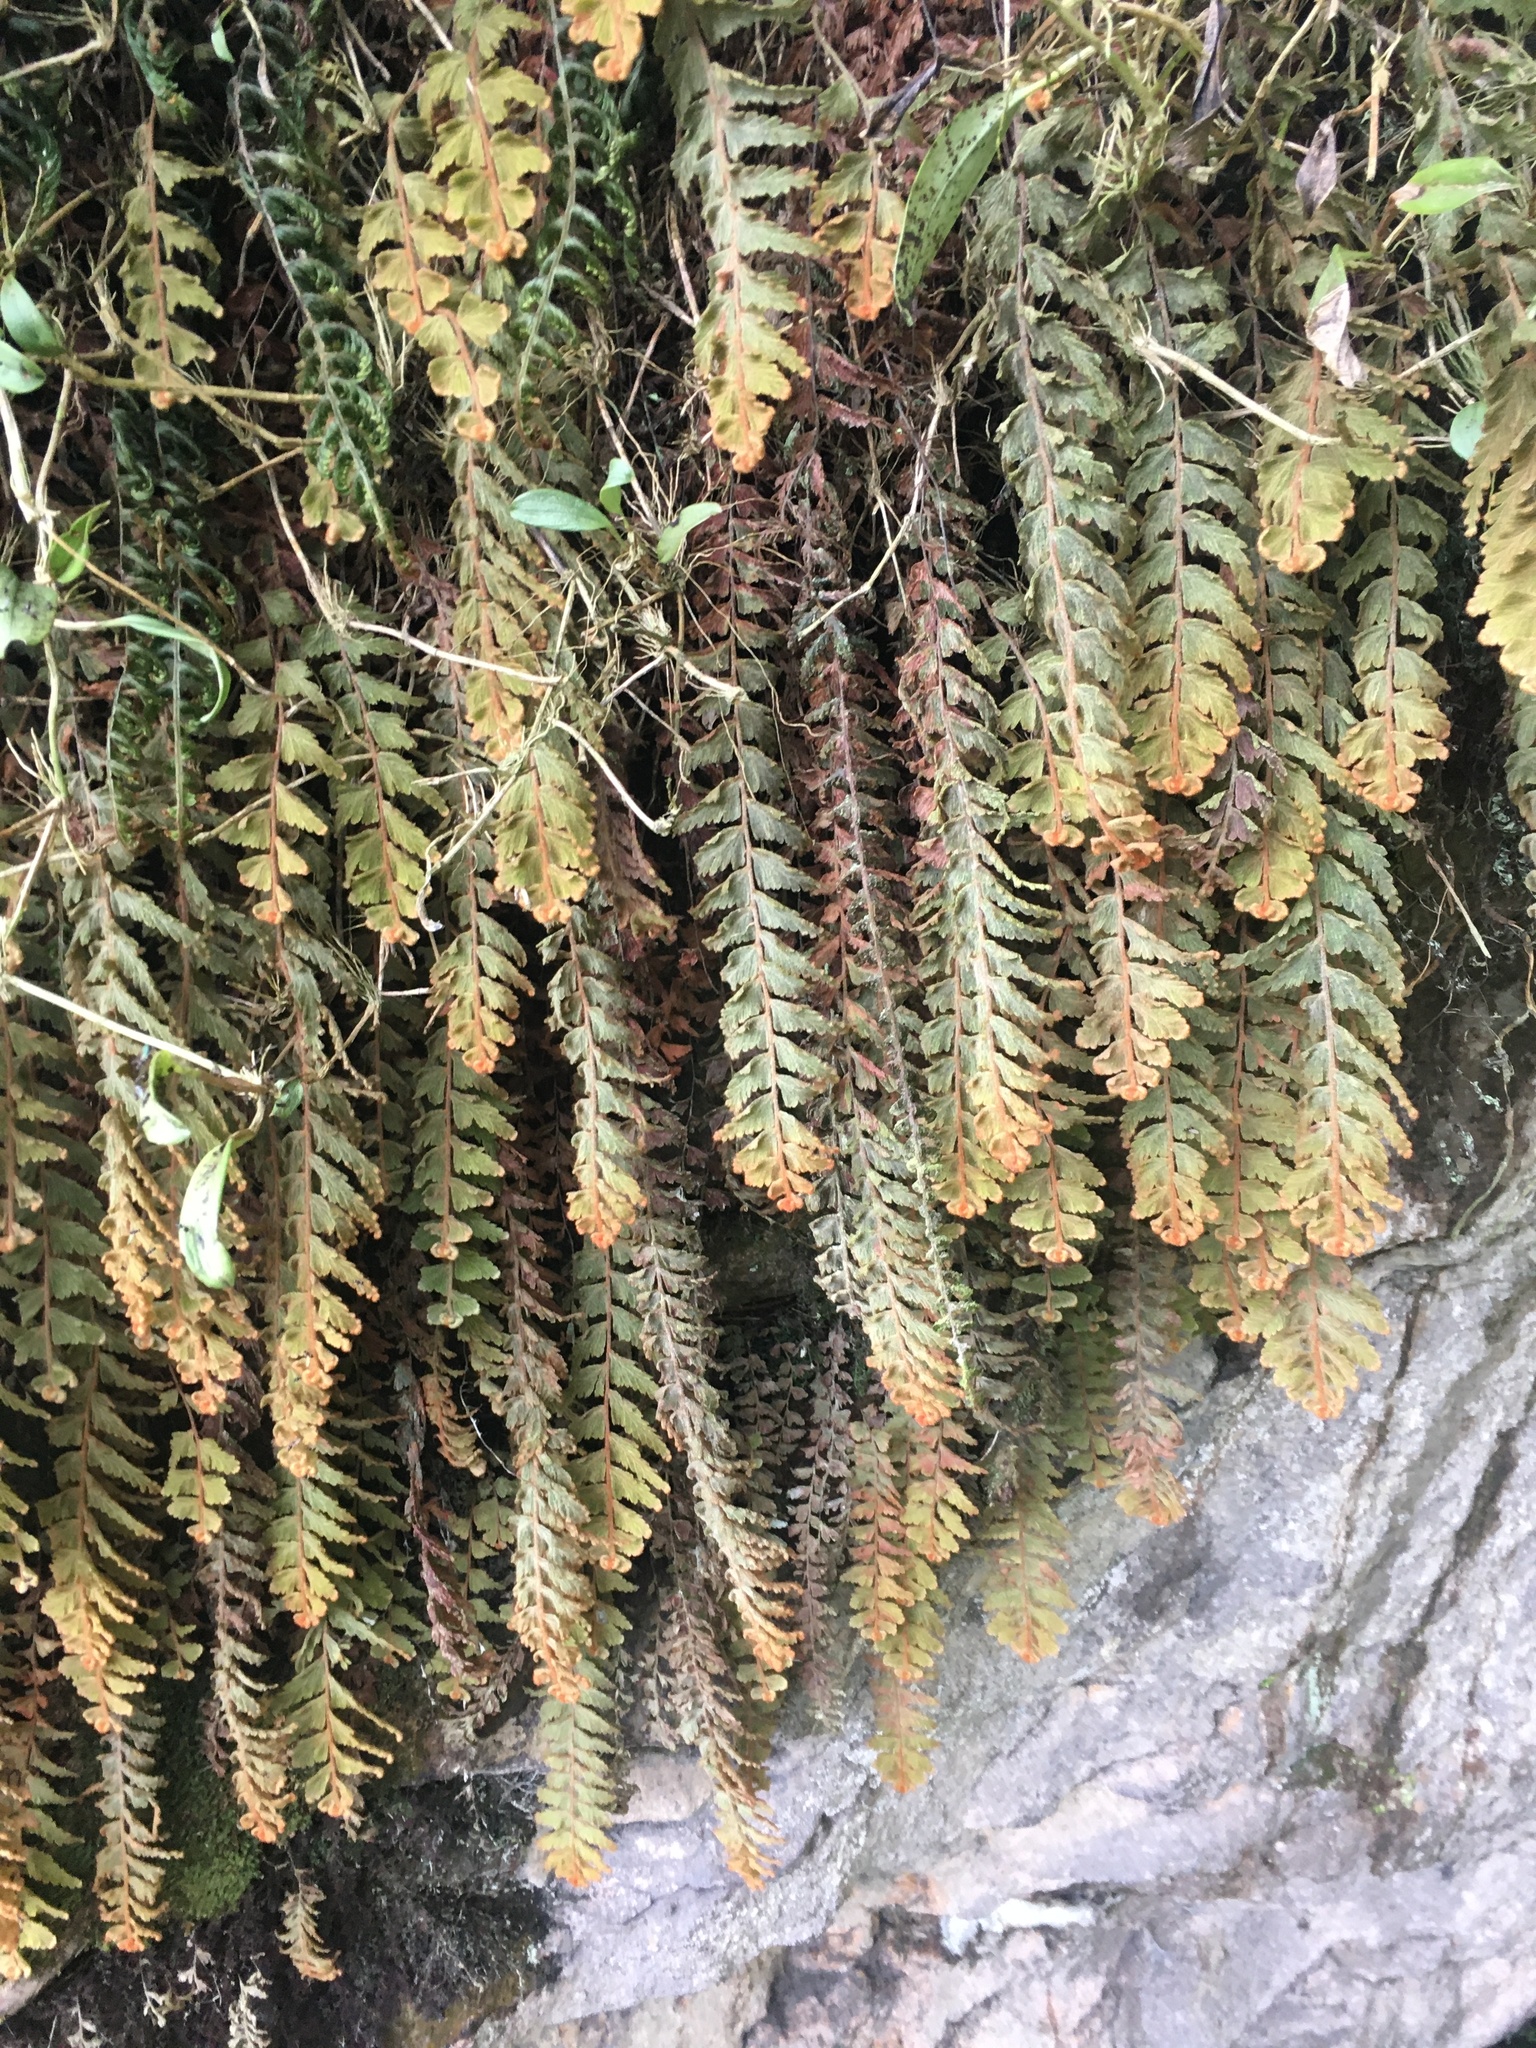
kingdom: Plantae
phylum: Tracheophyta
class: Polypodiopsida
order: Hymenophyllales
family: Hymenophyllaceae
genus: Hymenophyllum
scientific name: Hymenophyllum tomentosum
